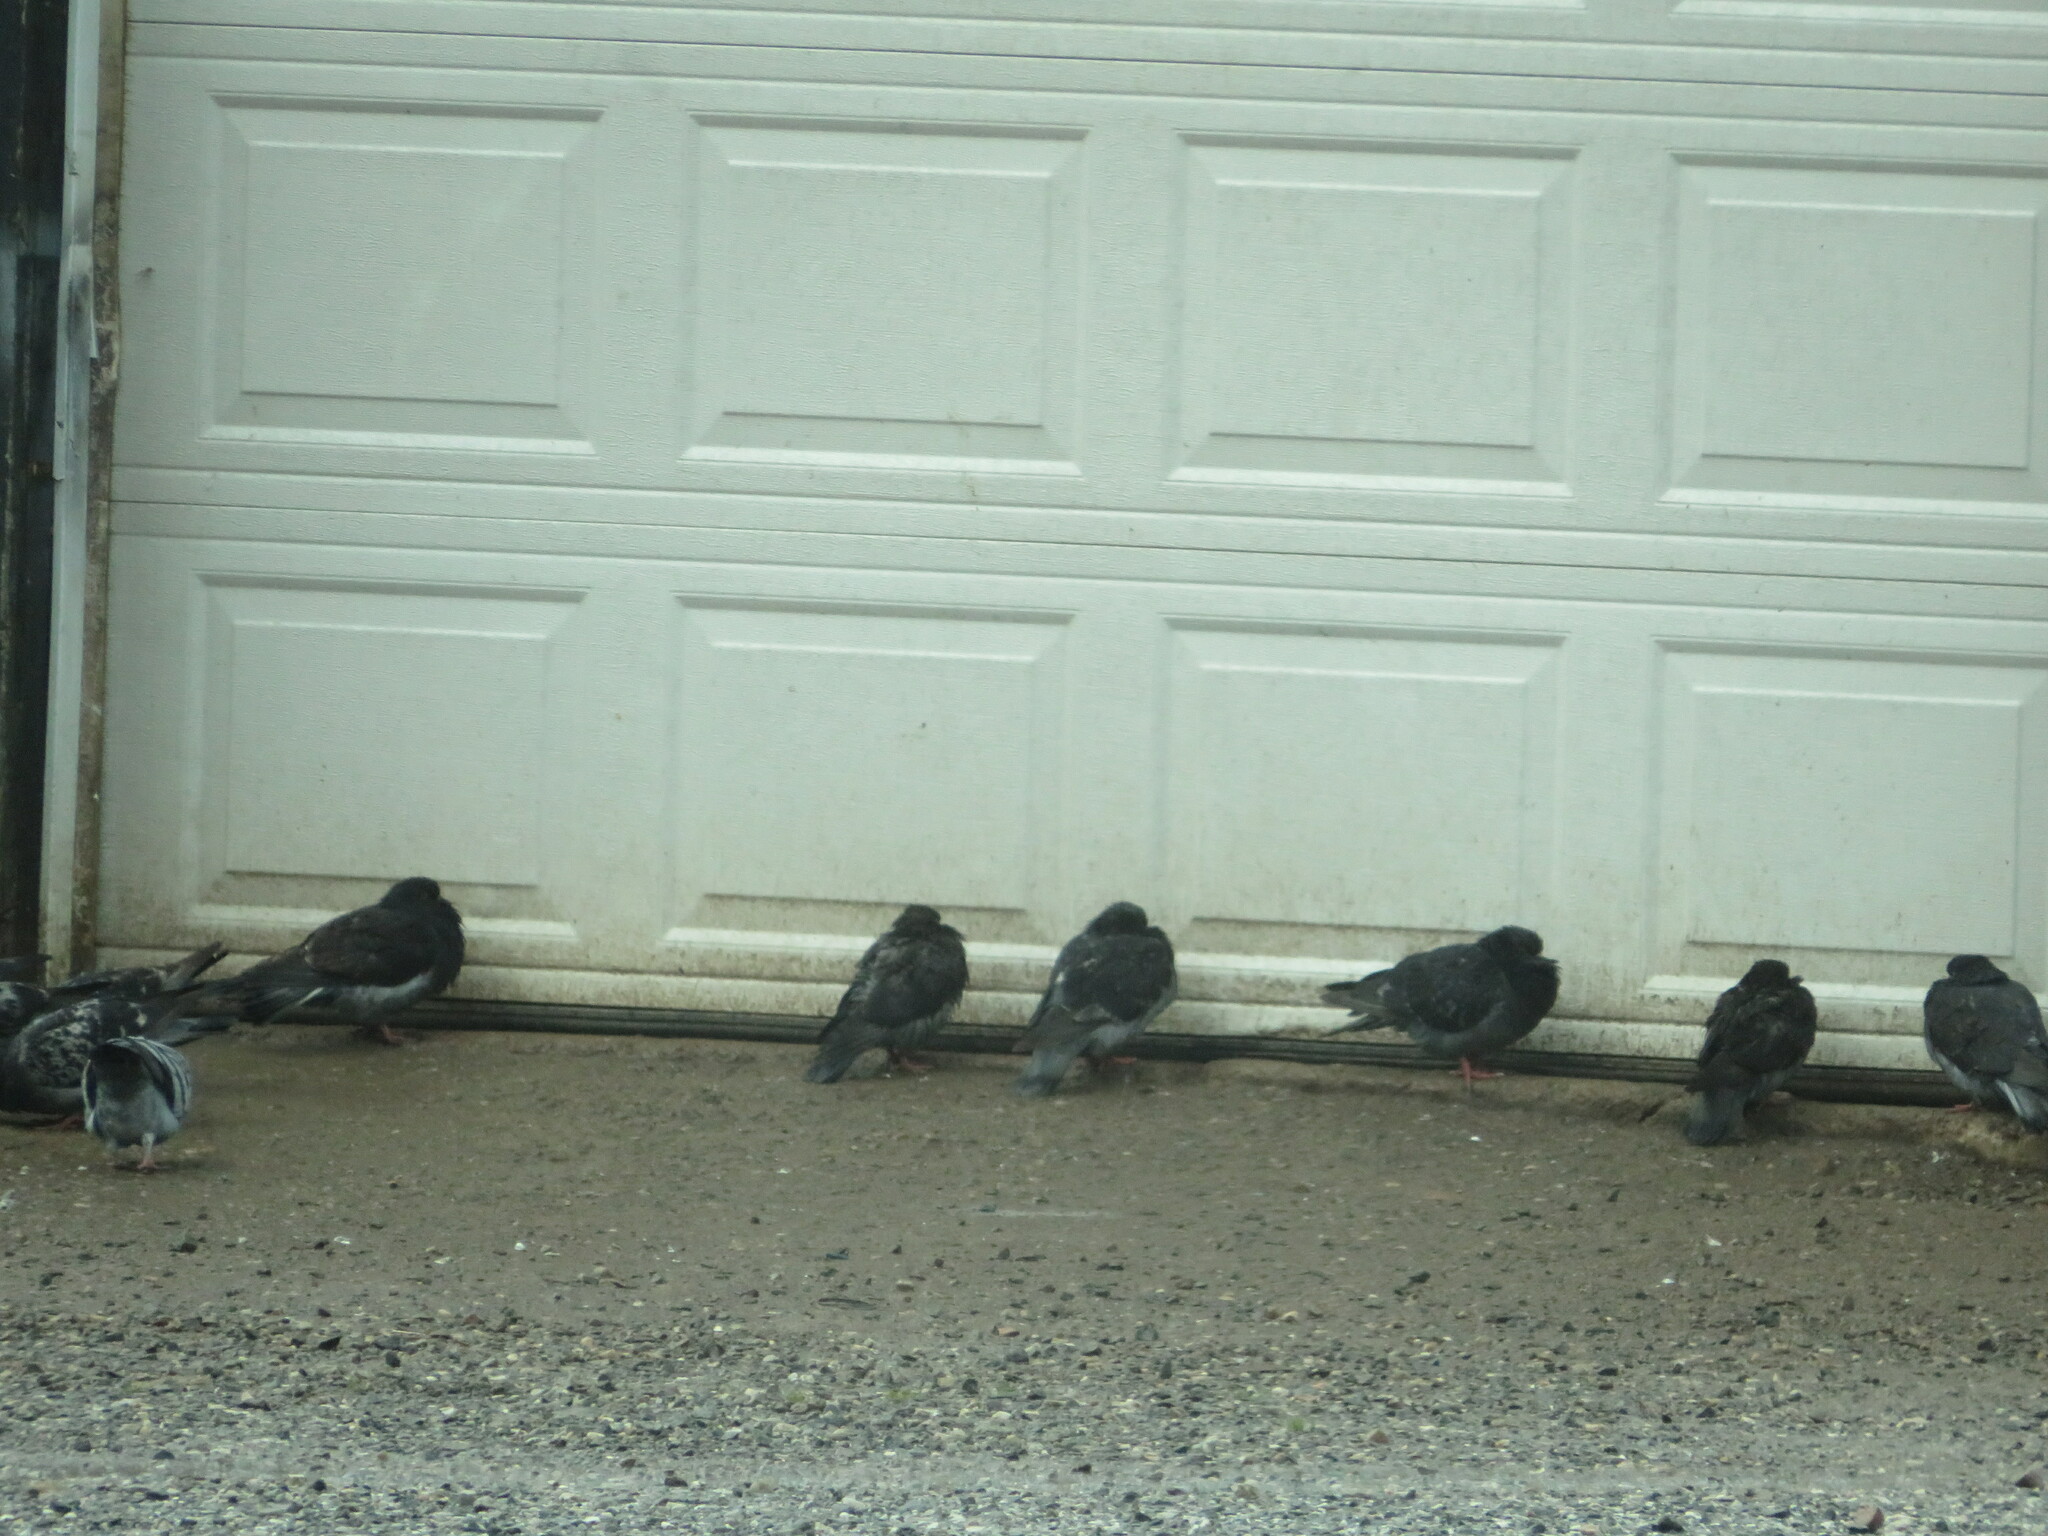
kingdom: Animalia
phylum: Chordata
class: Aves
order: Columbiformes
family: Columbidae
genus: Columba
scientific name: Columba livia
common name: Rock pigeon
